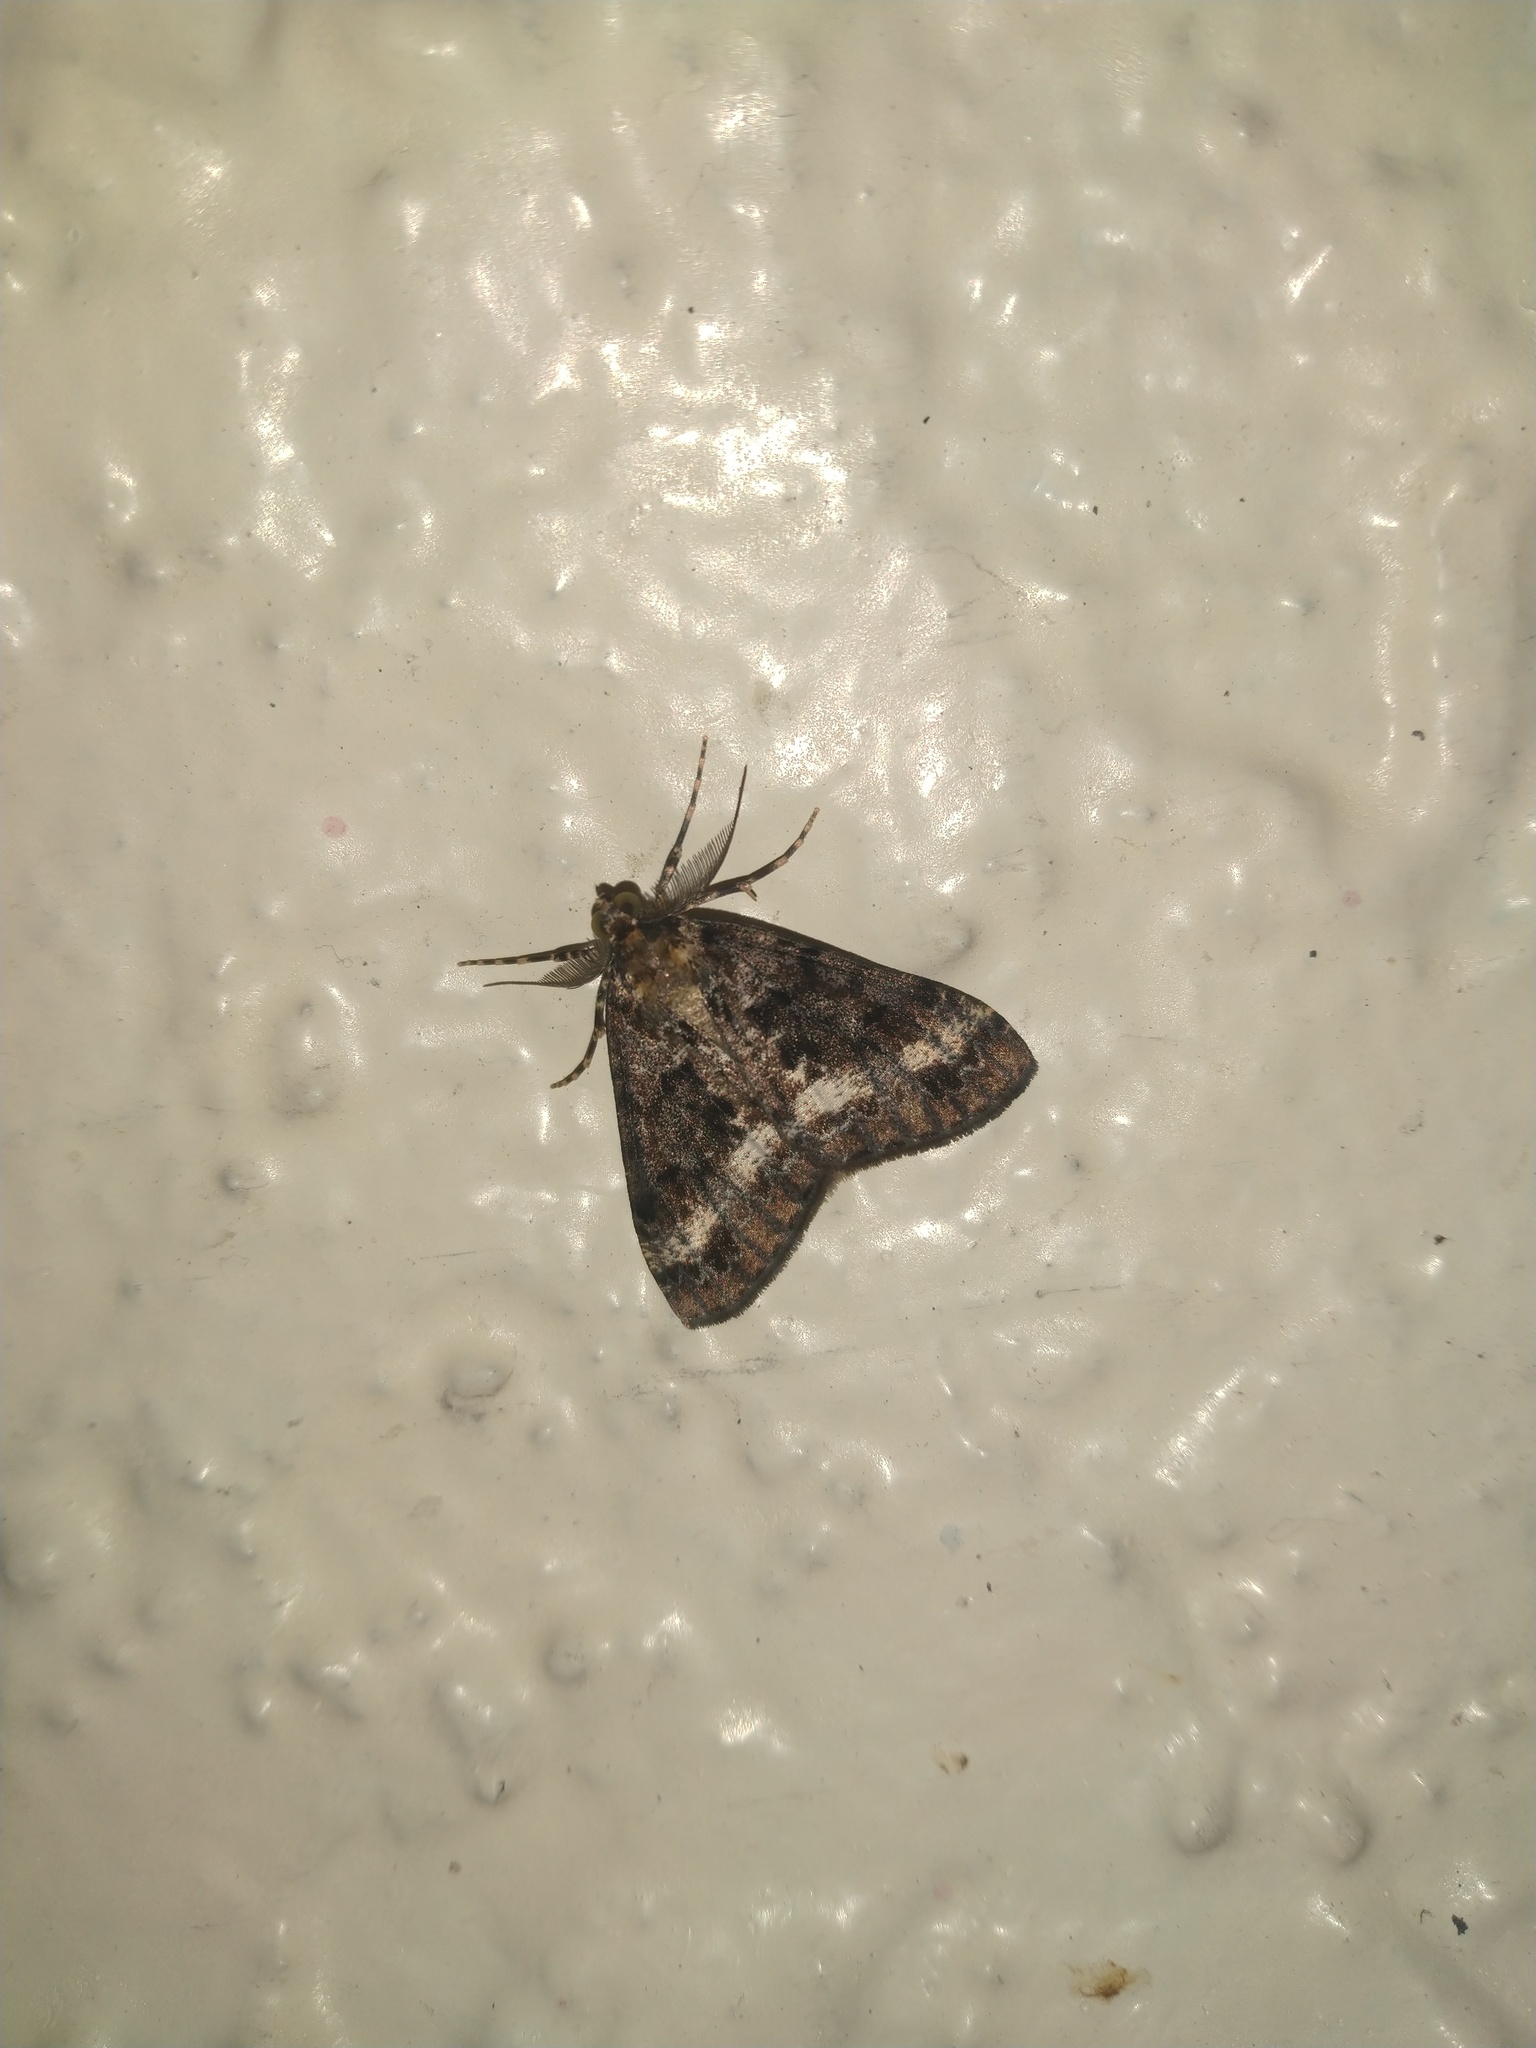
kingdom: Animalia
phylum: Arthropoda
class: Insecta
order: Lepidoptera
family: Geometridae
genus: Pseudocoremia
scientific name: Pseudocoremia leucelaea
